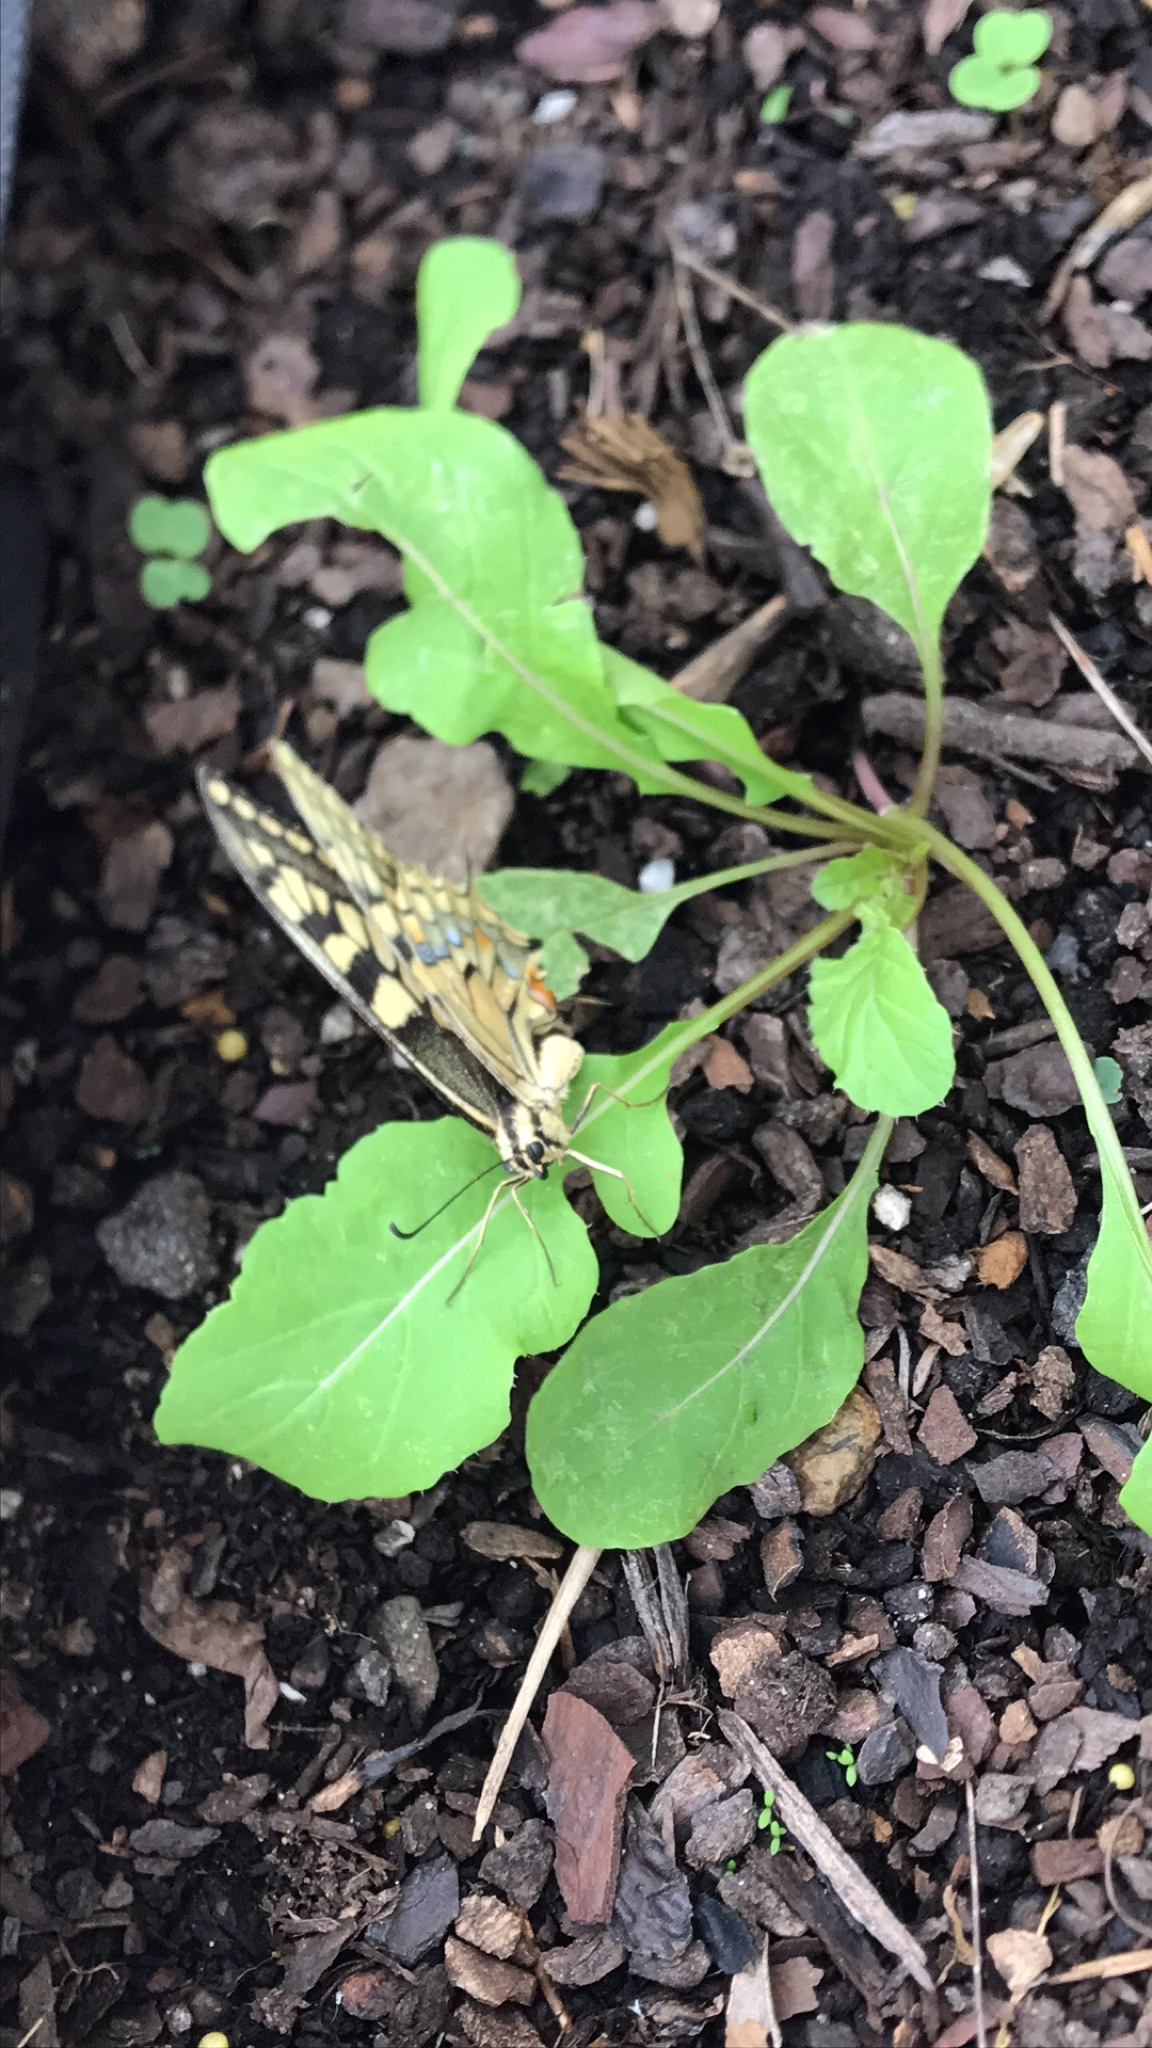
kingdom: Animalia
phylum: Arthropoda
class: Insecta
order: Lepidoptera
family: Papilionidae
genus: Papilio
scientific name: Papilio machaon
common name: Swallowtail
